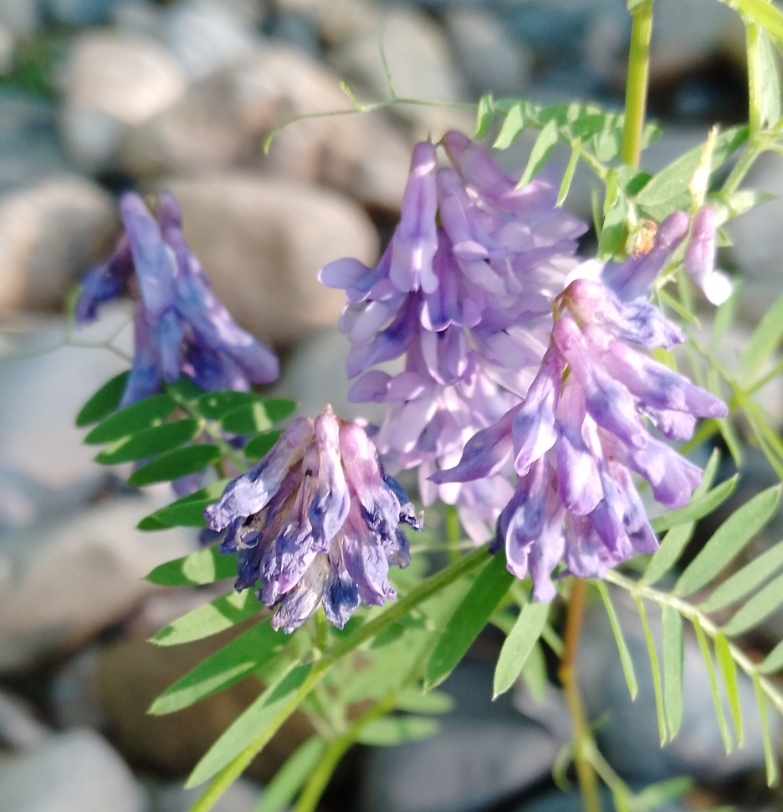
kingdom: Plantae
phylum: Tracheophyta
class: Magnoliopsida
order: Fabales
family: Fabaceae
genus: Vicia
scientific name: Vicia cracca
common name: Bird vetch
